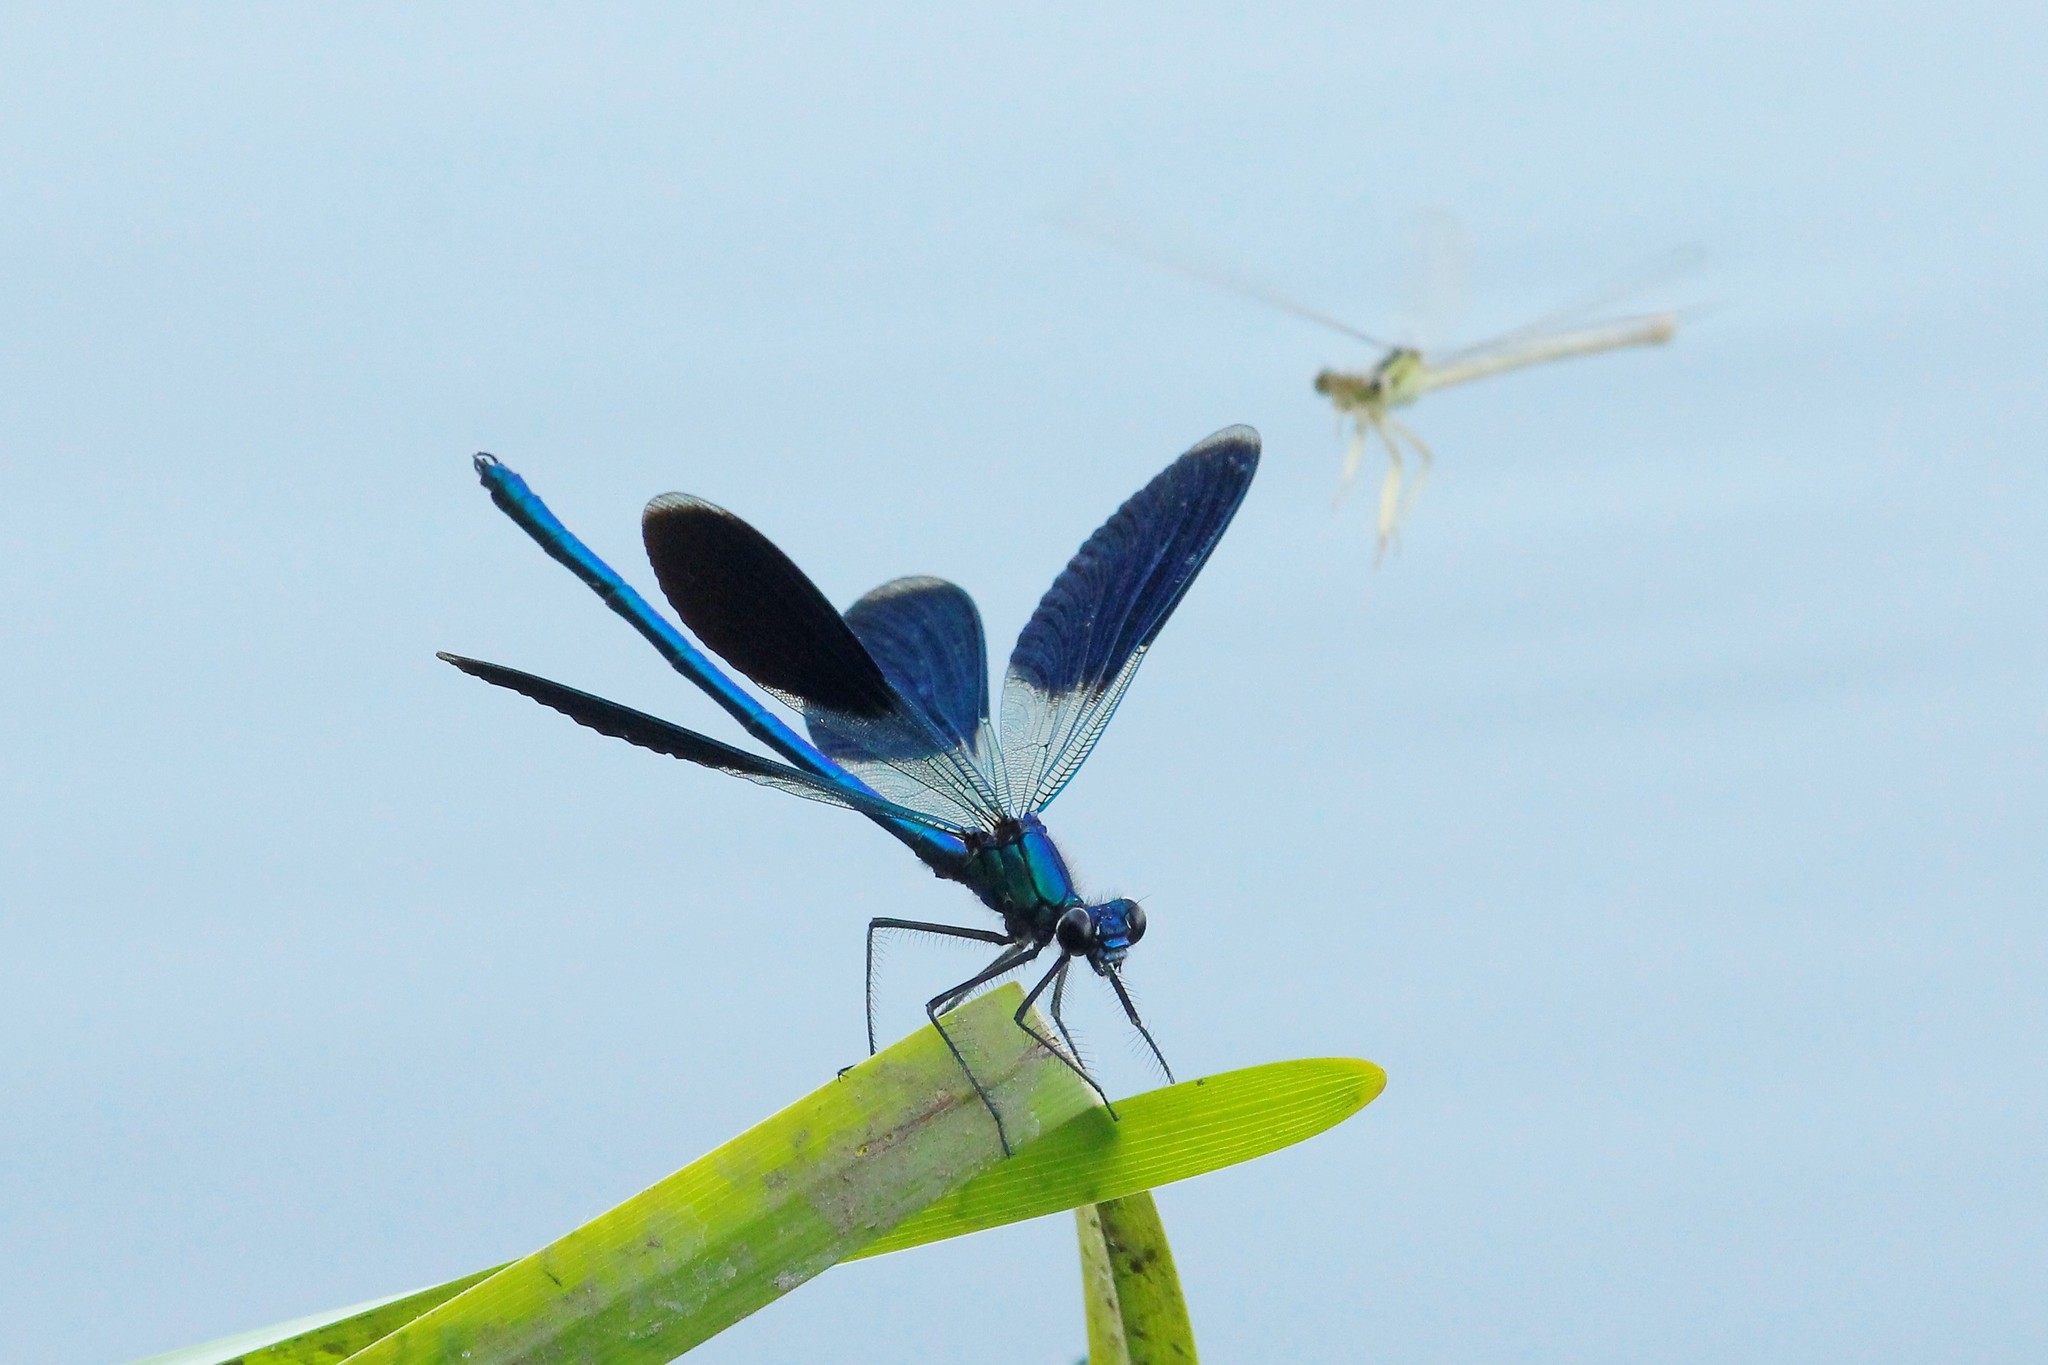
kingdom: Animalia
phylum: Arthropoda
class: Insecta
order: Odonata
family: Calopterygidae
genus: Calopteryx
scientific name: Calopteryx splendens
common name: Banded demoiselle
